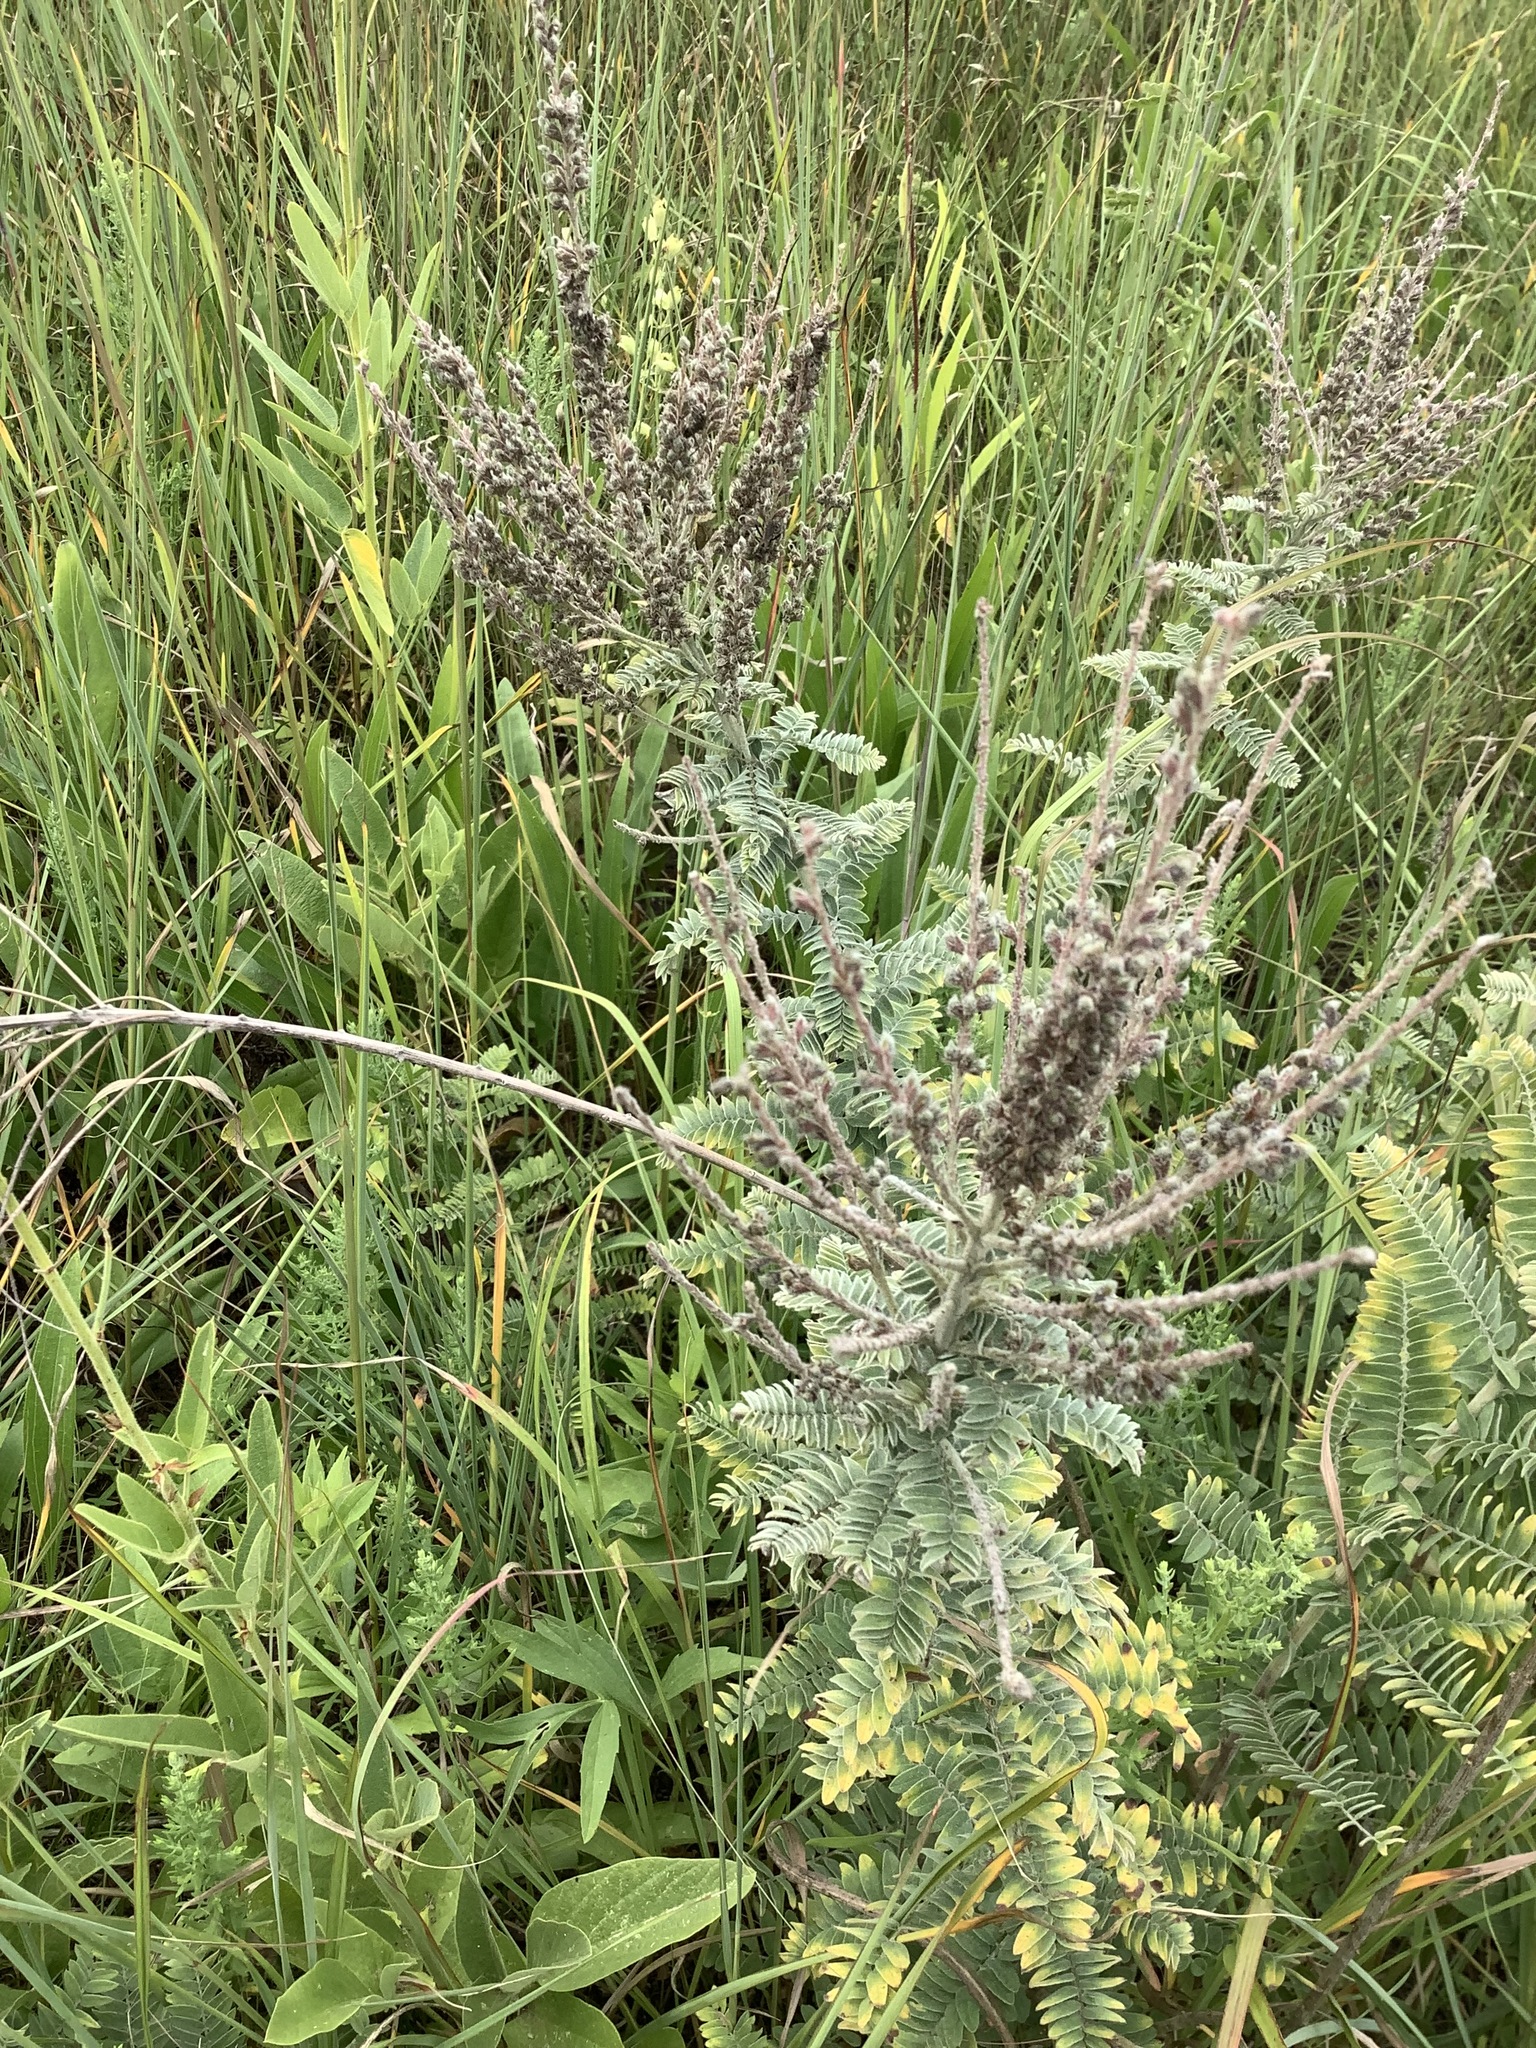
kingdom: Plantae
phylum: Tracheophyta
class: Magnoliopsida
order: Fabales
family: Fabaceae
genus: Amorpha
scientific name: Amorpha canescens
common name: Leadplant
